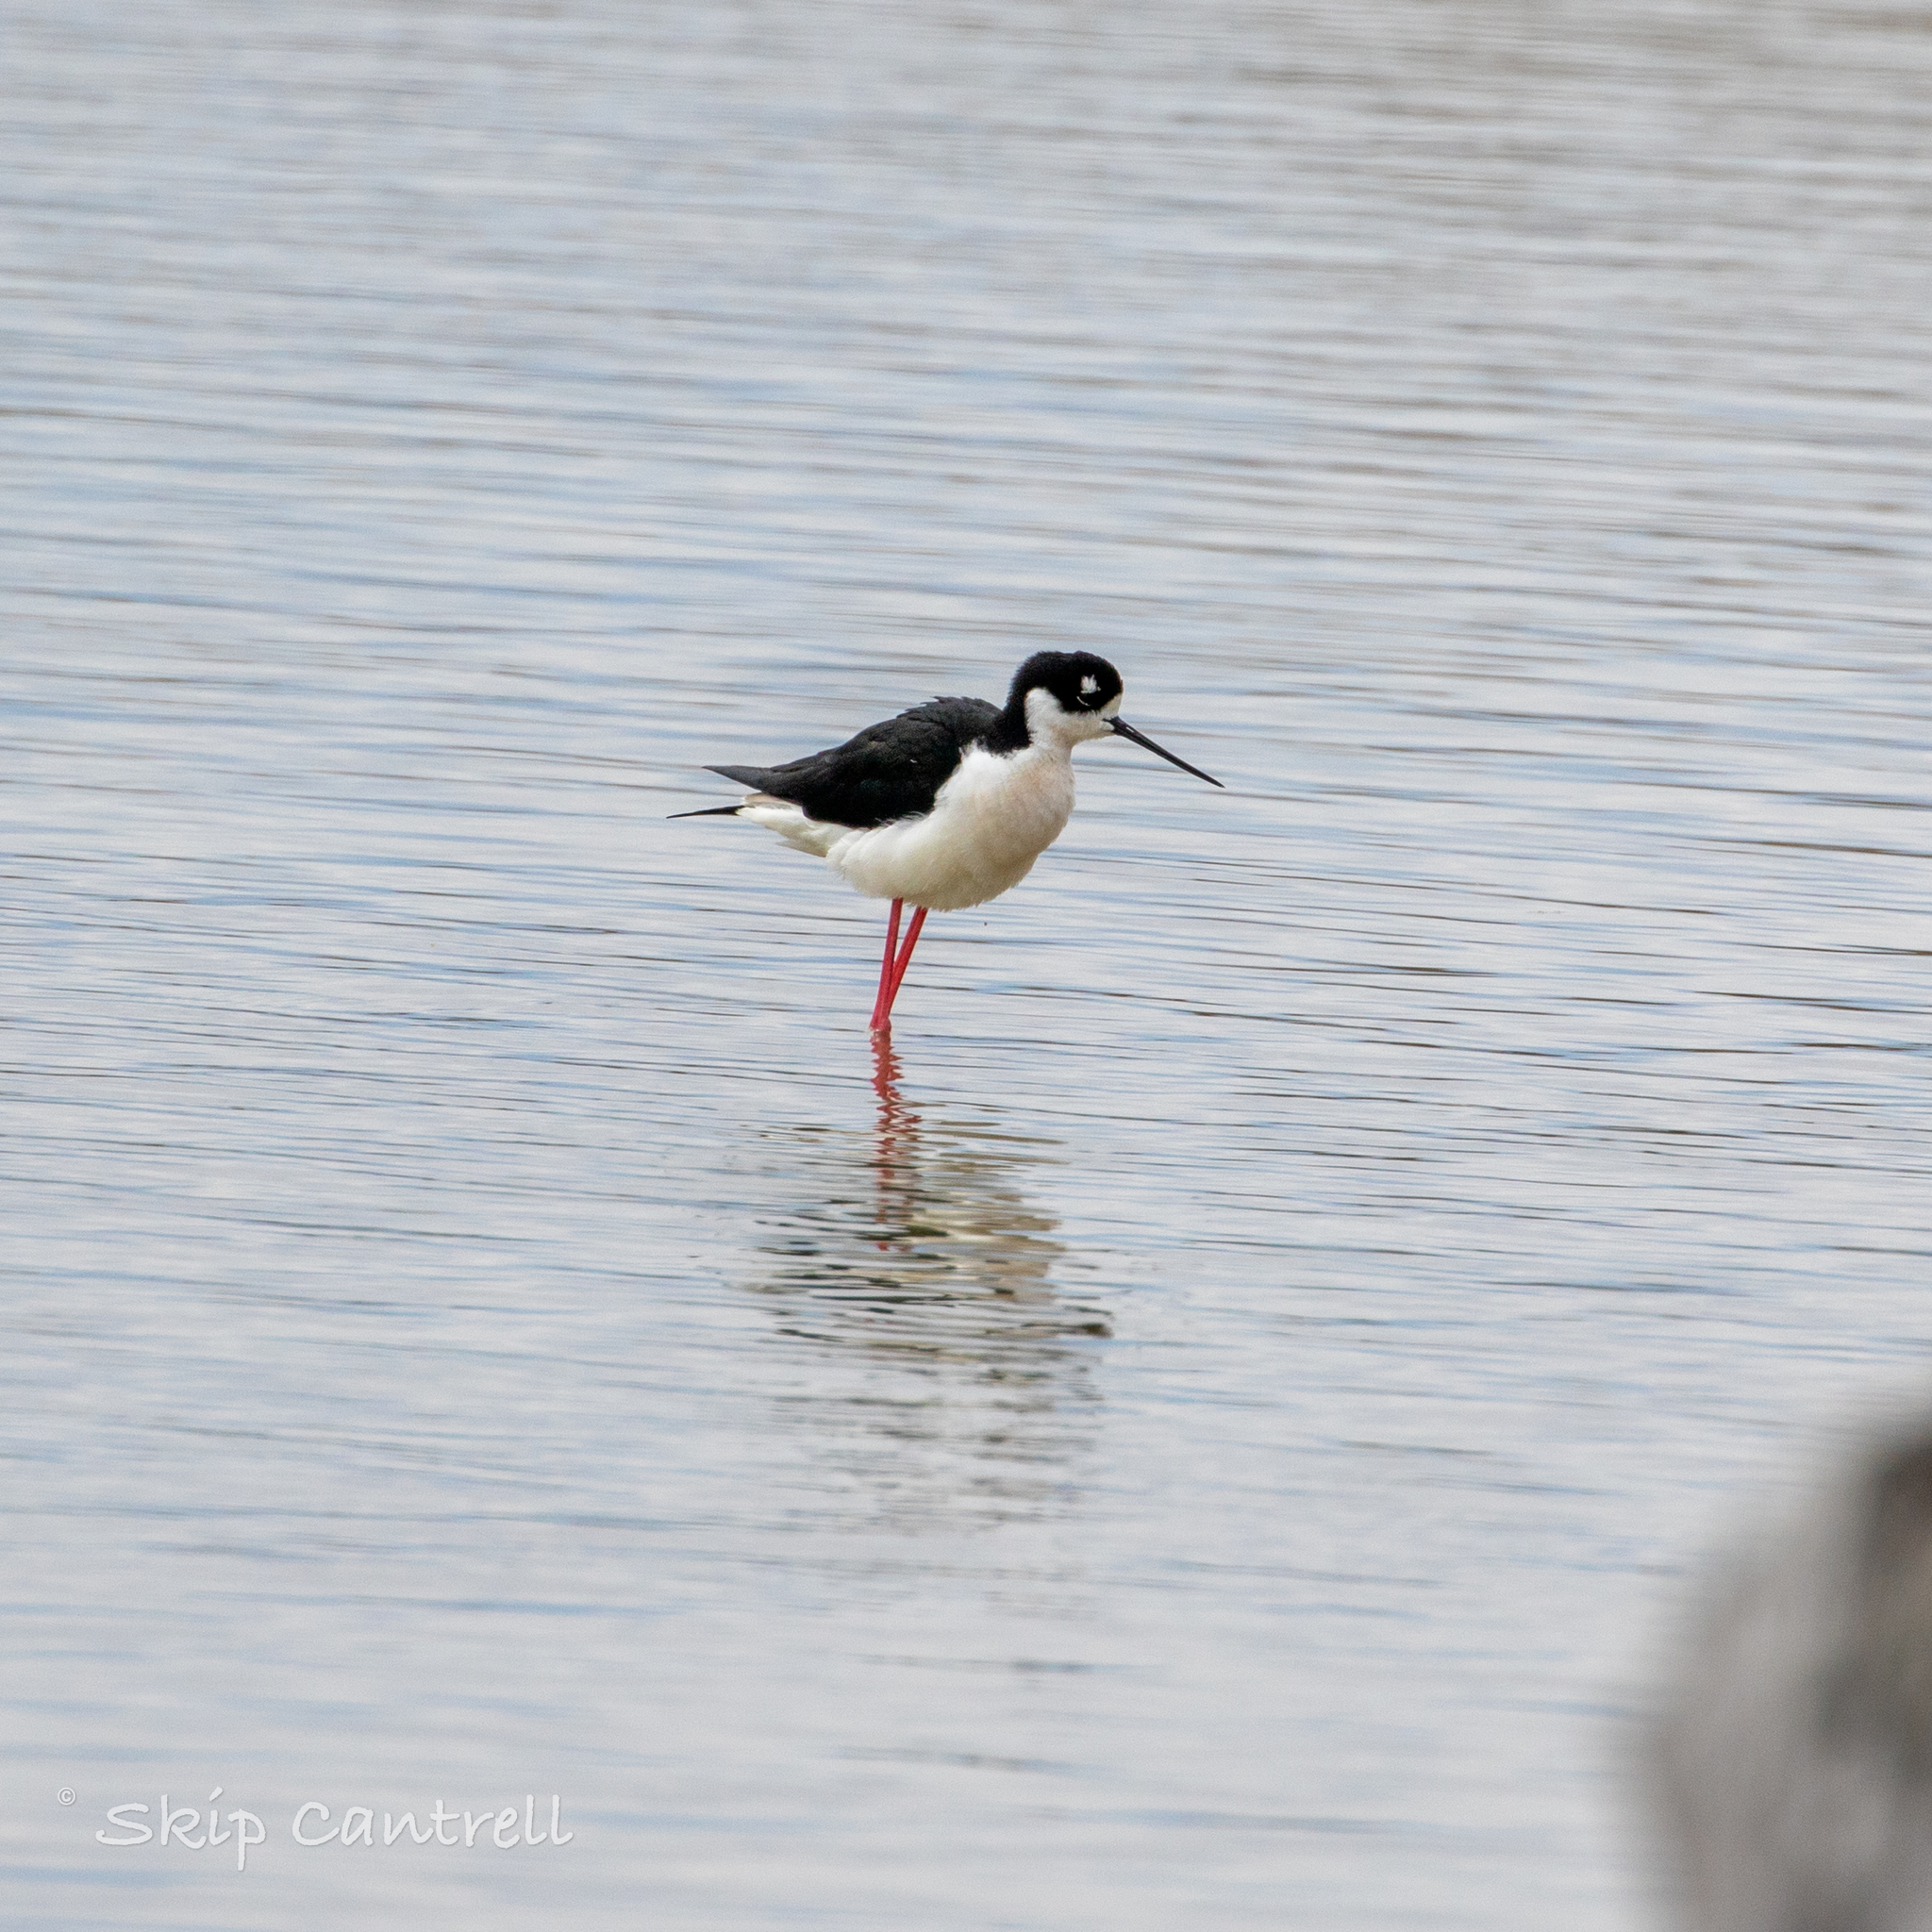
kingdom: Animalia
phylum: Chordata
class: Aves
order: Charadriiformes
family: Recurvirostridae
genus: Himantopus
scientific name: Himantopus mexicanus
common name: Black-necked stilt
